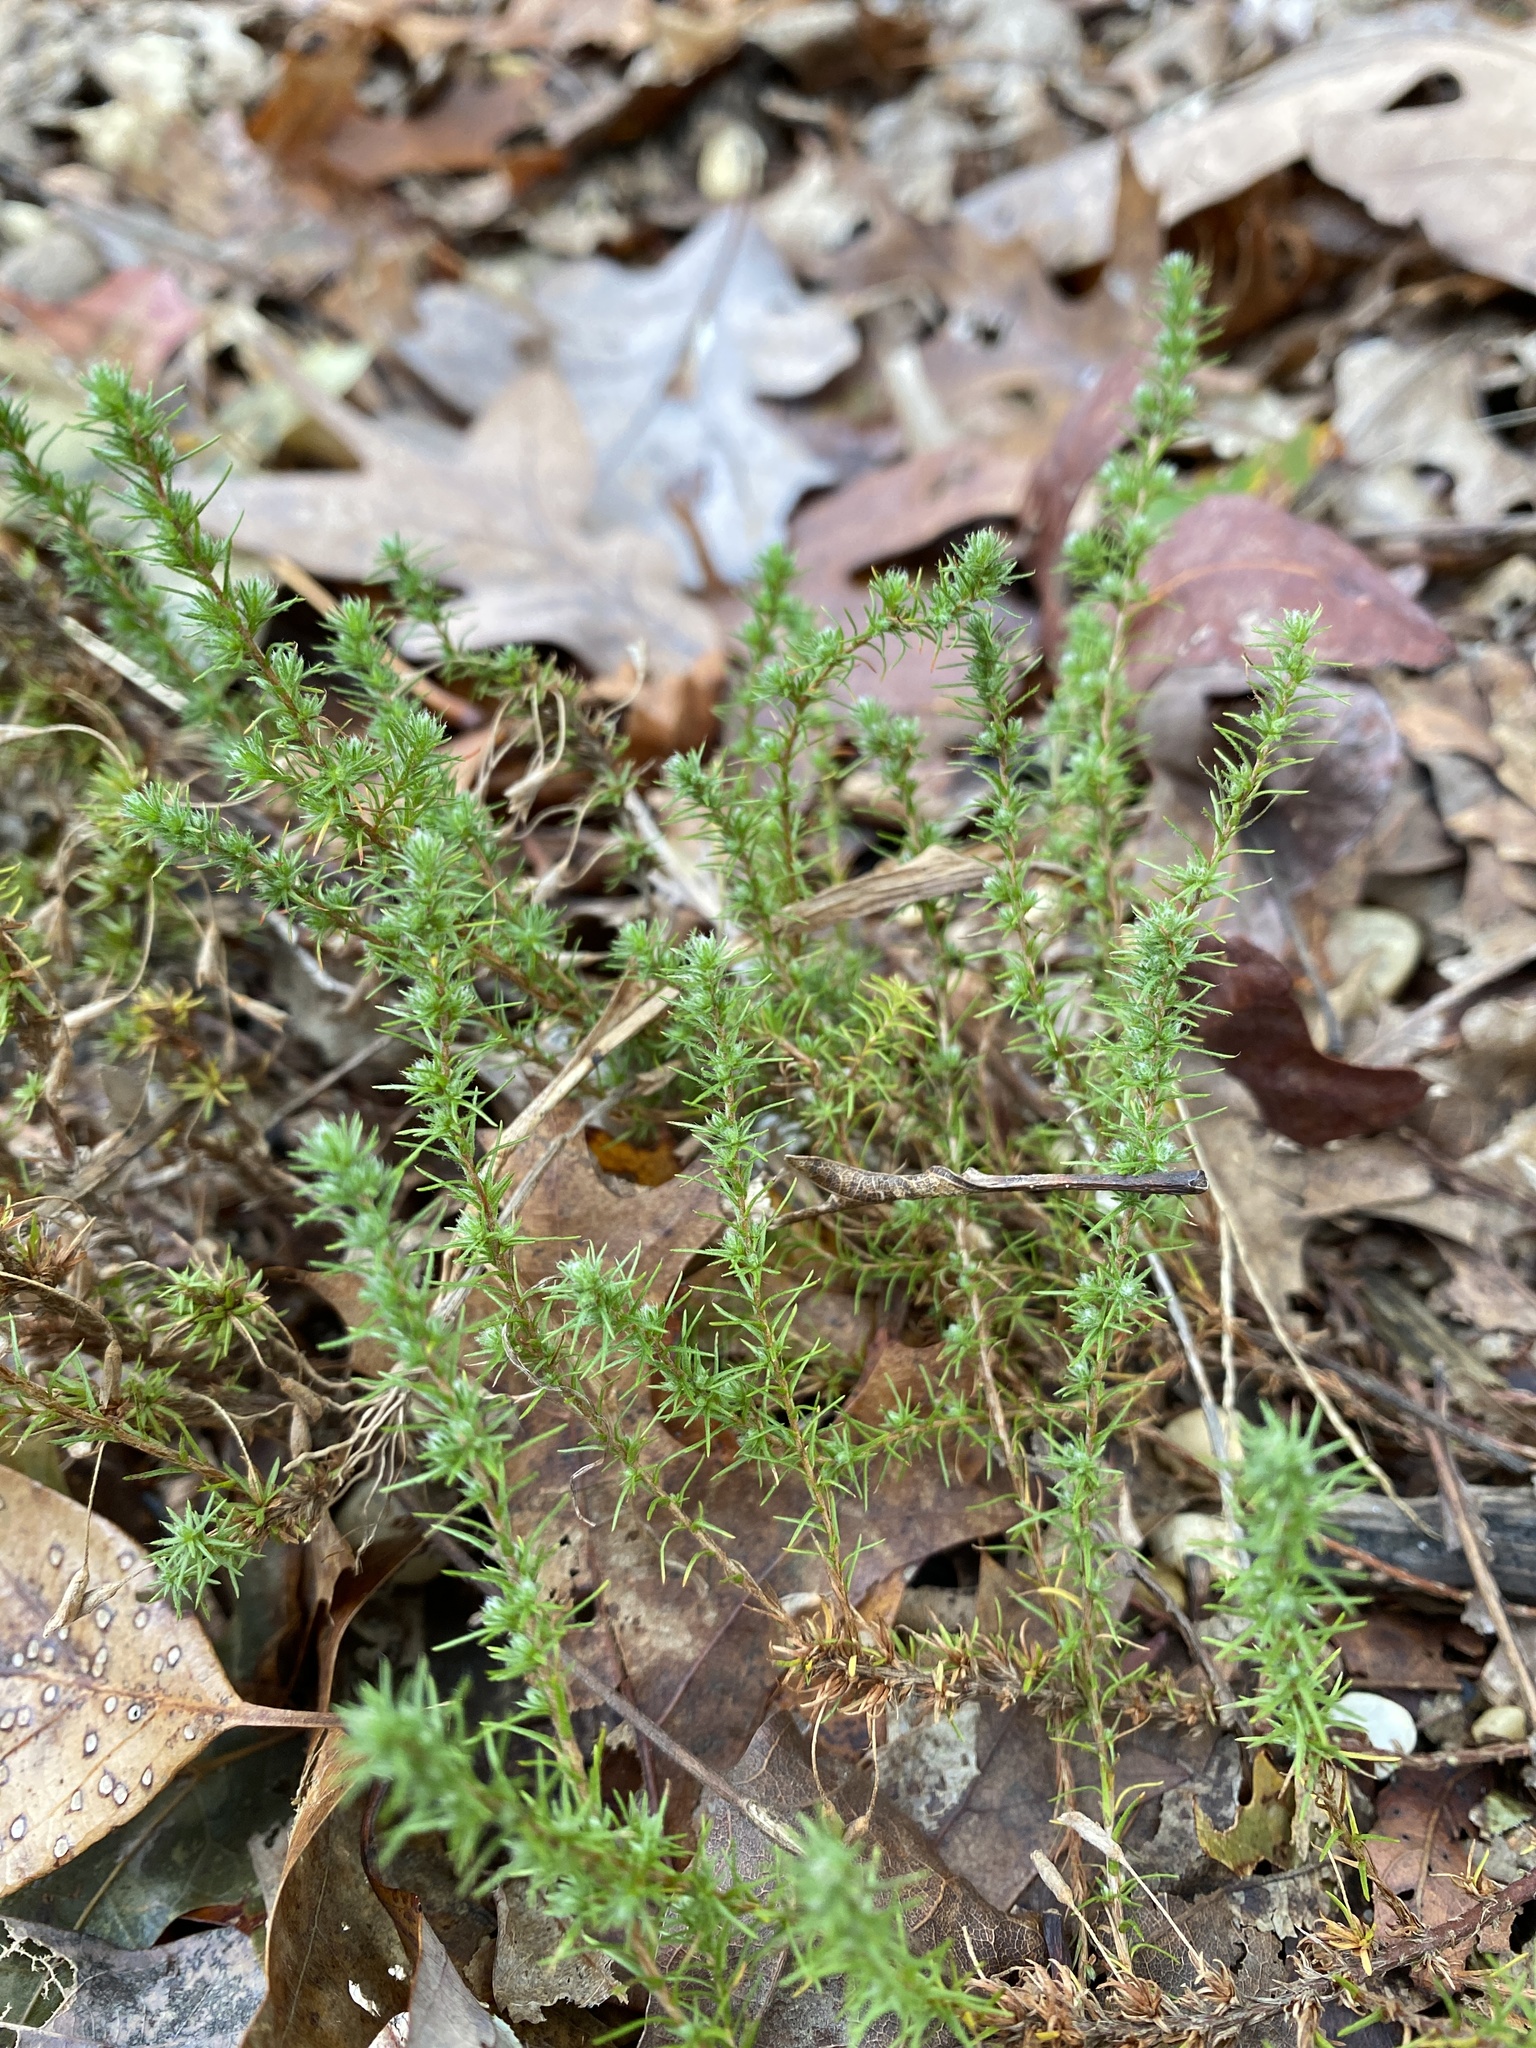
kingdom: Plantae
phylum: Tracheophyta
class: Magnoliopsida
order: Malvales
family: Cistaceae
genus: Hudsonia
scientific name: Hudsonia ericoides
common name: Golden-heather
